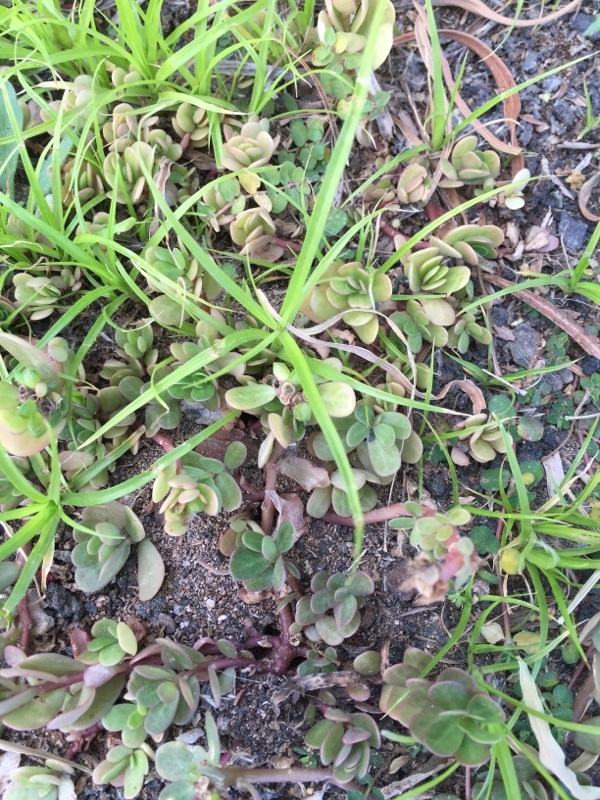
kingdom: Plantae
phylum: Tracheophyta
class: Magnoliopsida
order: Caryophyllales
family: Portulacaceae
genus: Portulaca
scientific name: Portulaca oleracea
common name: Common purslane
